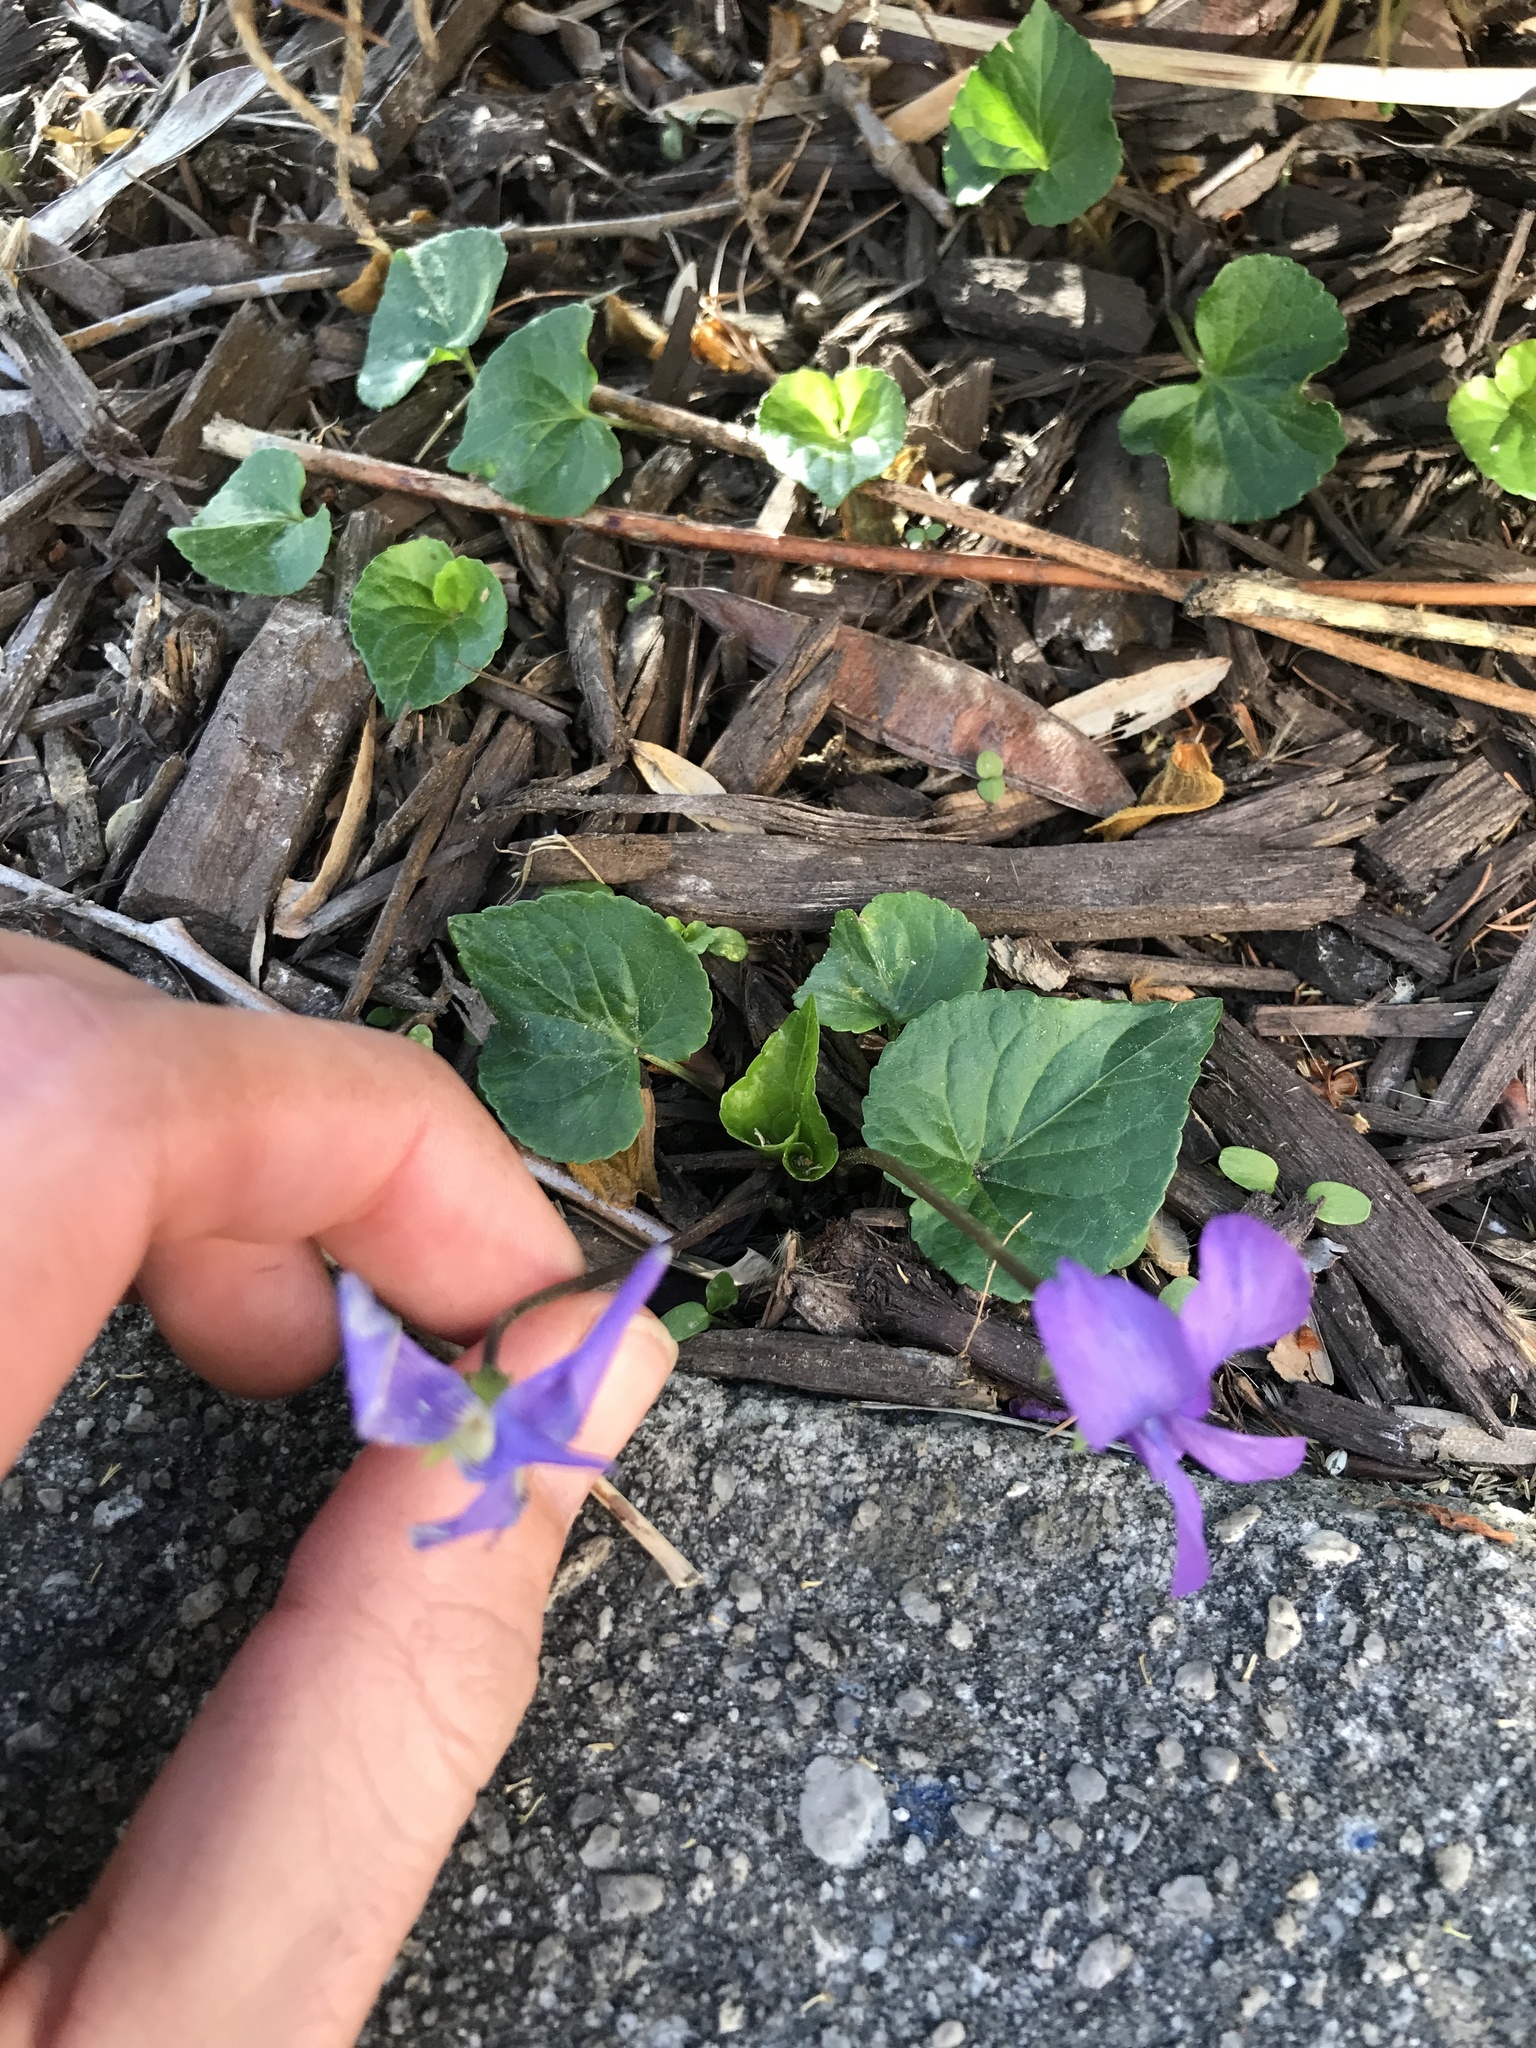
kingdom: Plantae
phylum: Tracheophyta
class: Magnoliopsida
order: Malpighiales
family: Violaceae
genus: Viola
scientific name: Viola sororia
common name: Dooryard violet
